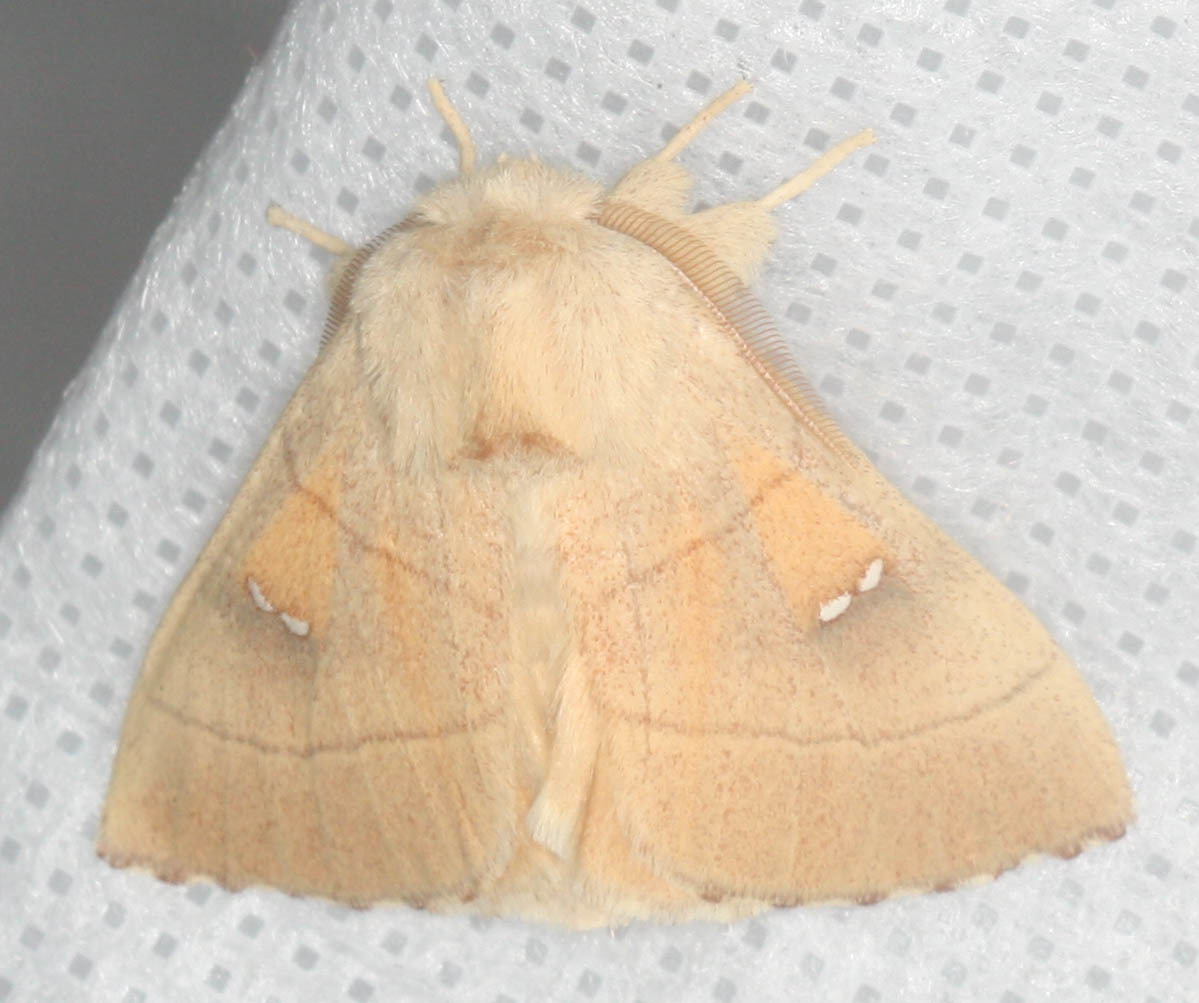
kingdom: Animalia
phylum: Arthropoda
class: Insecta
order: Lepidoptera
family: Notodontidae
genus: Nadata
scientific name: Nadata gibbosa
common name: White-dotted prominent
